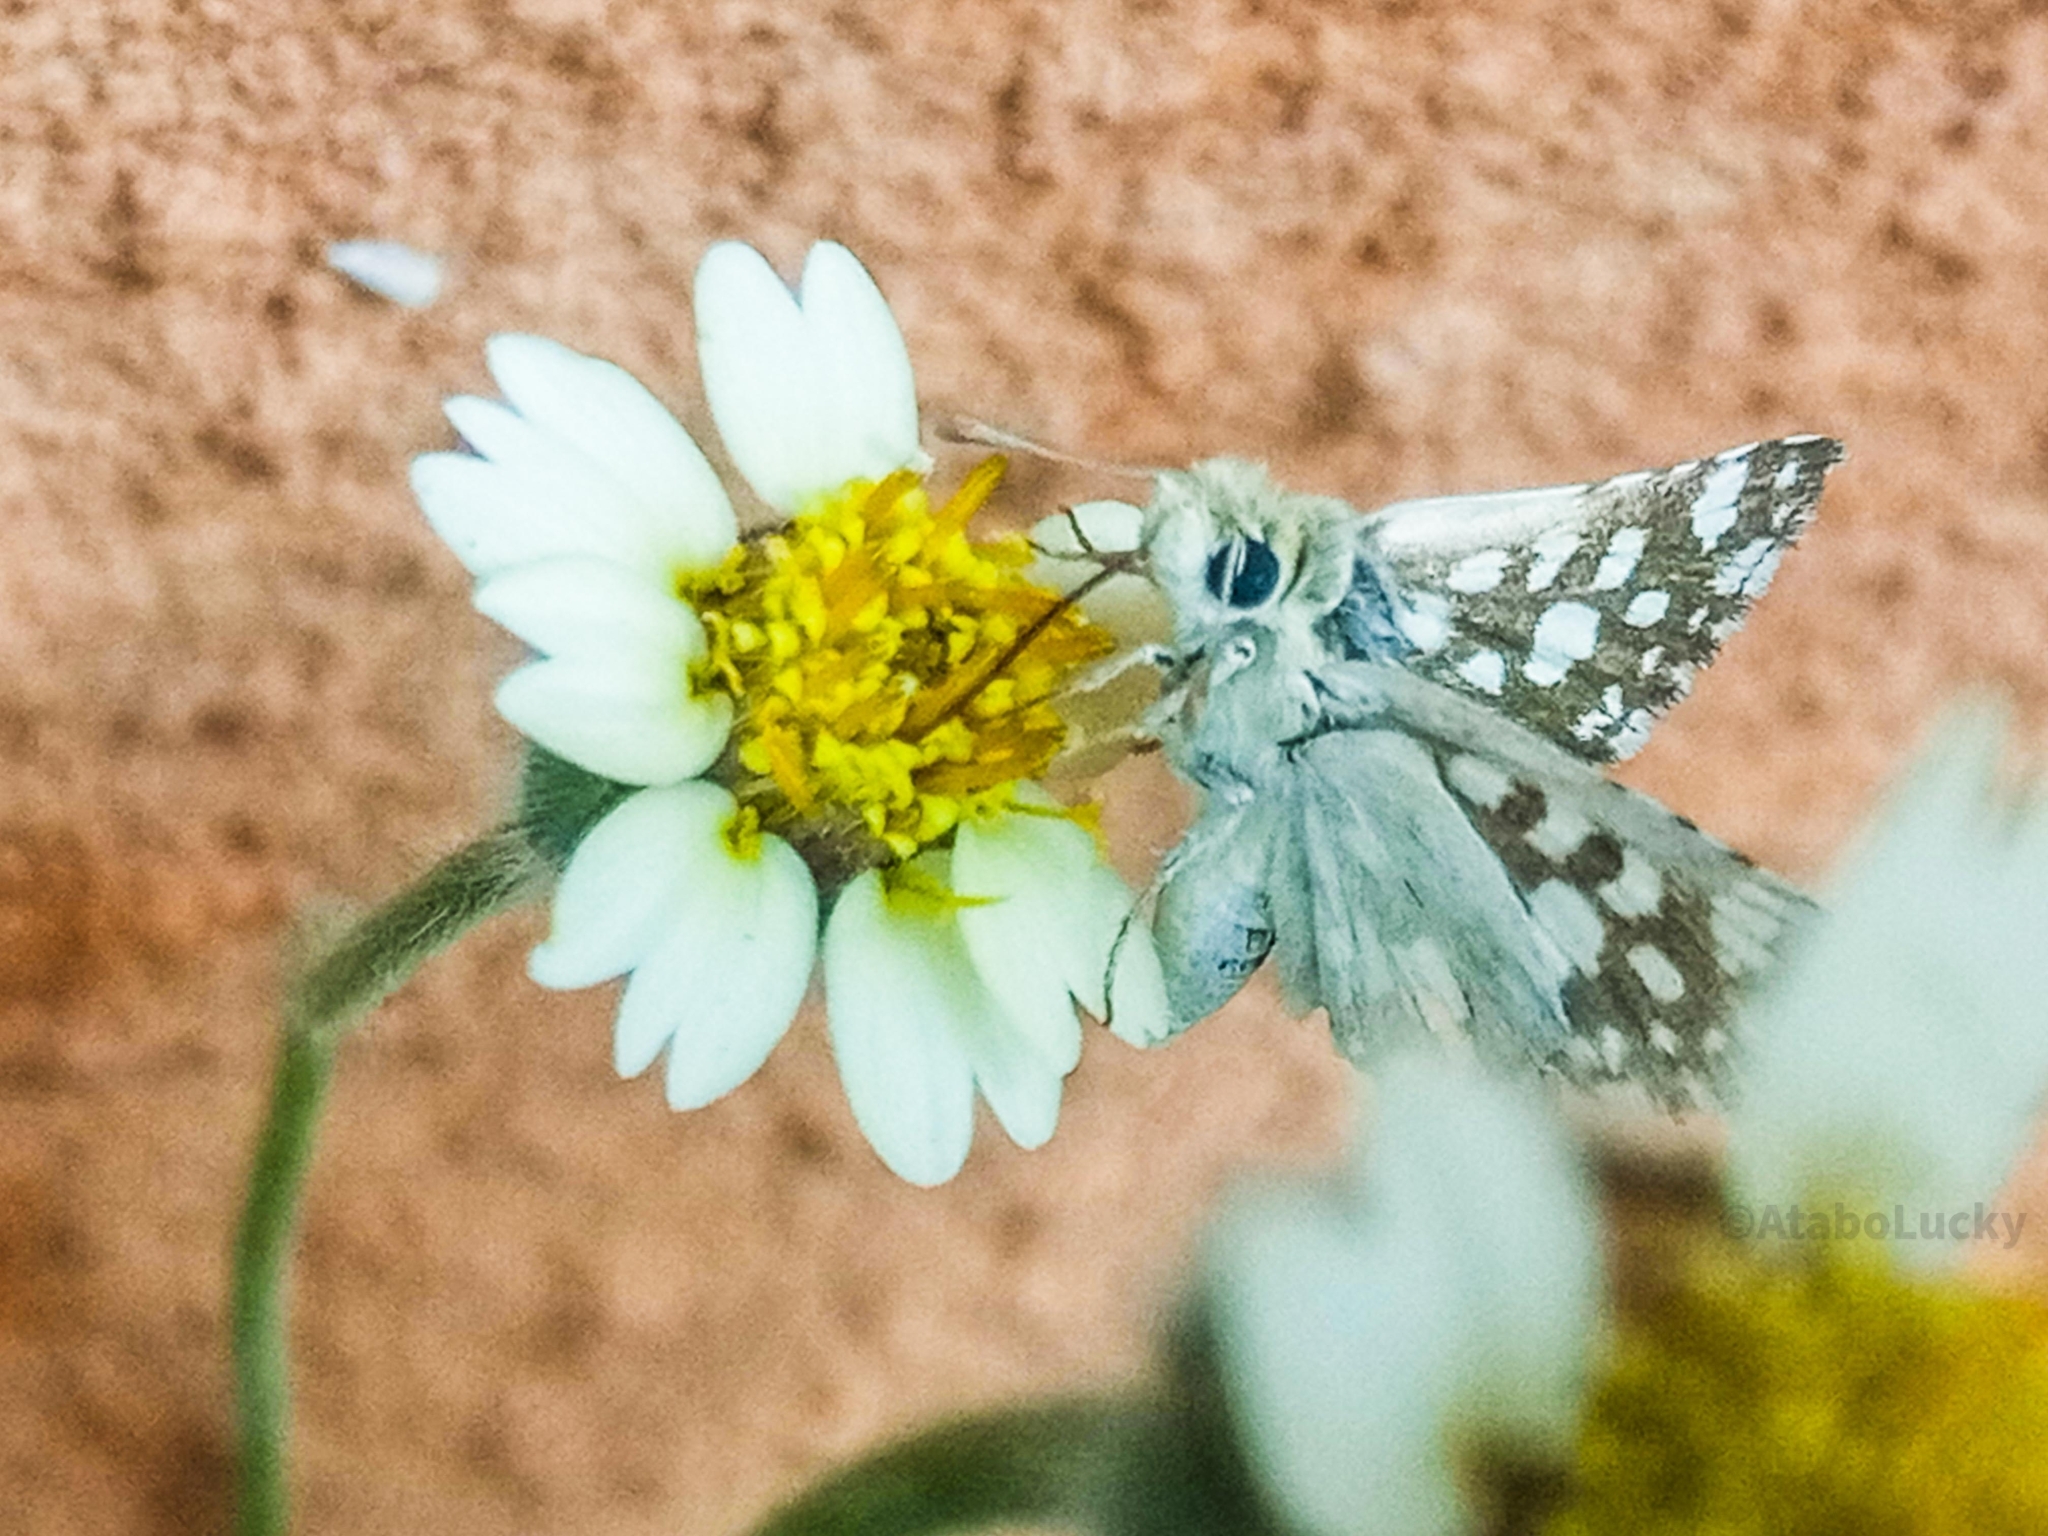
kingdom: Animalia
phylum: Arthropoda
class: Insecta
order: Lepidoptera
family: Hesperiidae
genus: Spialia
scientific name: Spialia spio
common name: Mountain sandman
